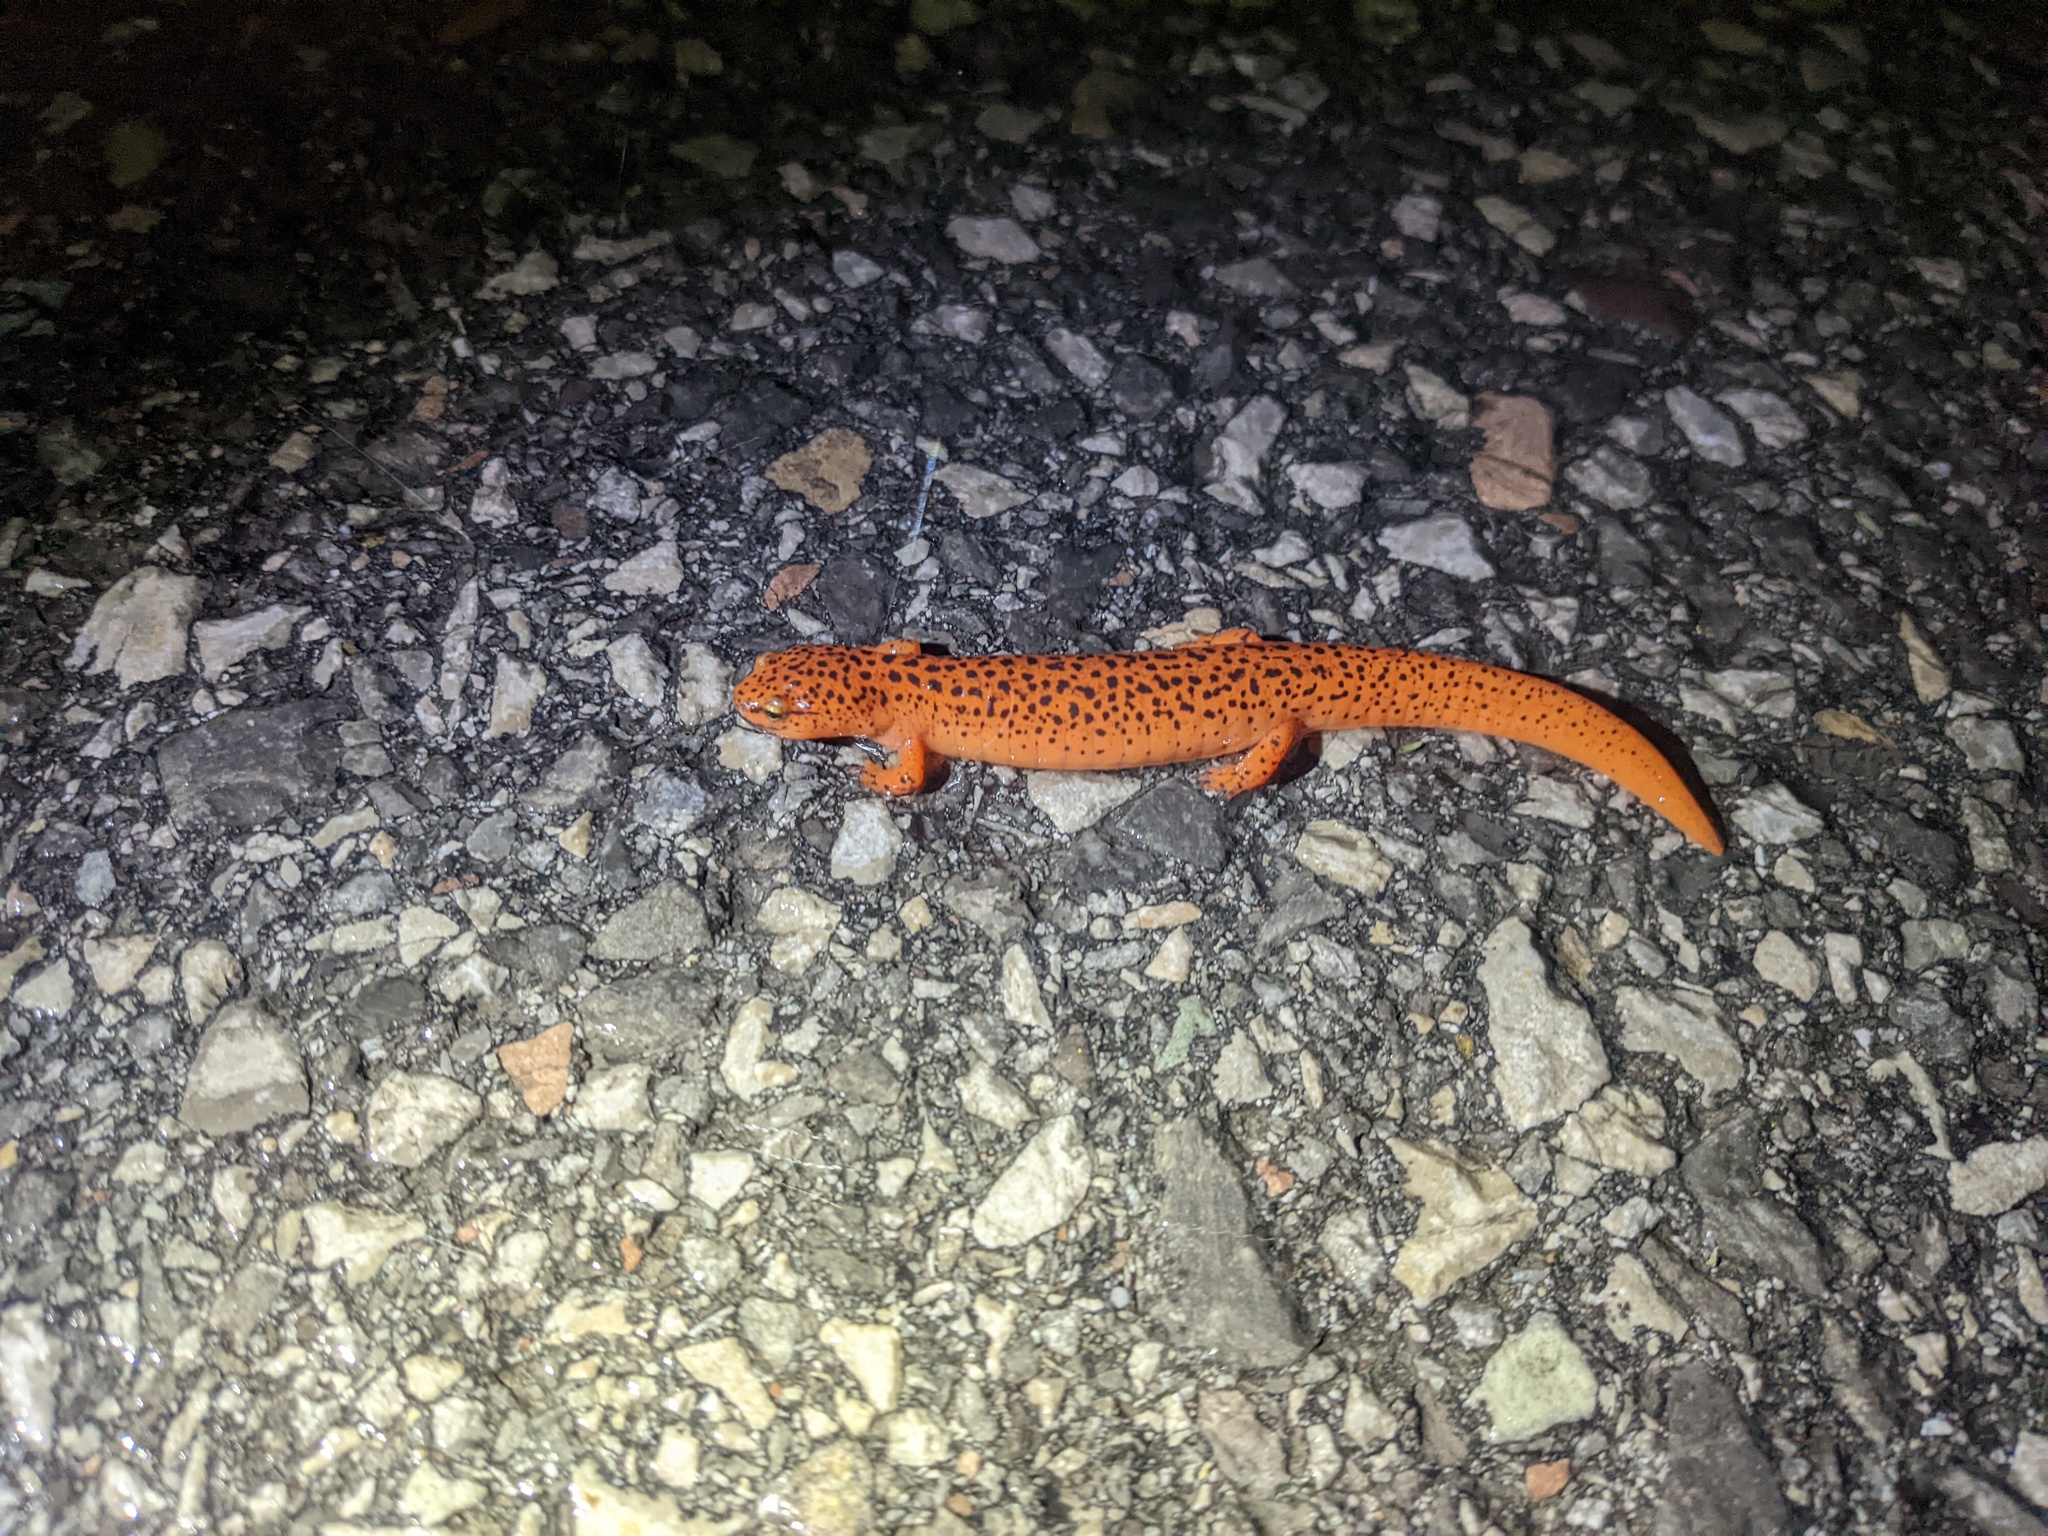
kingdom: Animalia
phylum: Chordata
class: Amphibia
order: Caudata
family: Plethodontidae
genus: Pseudotriton
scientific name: Pseudotriton ruber
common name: Red salamander
